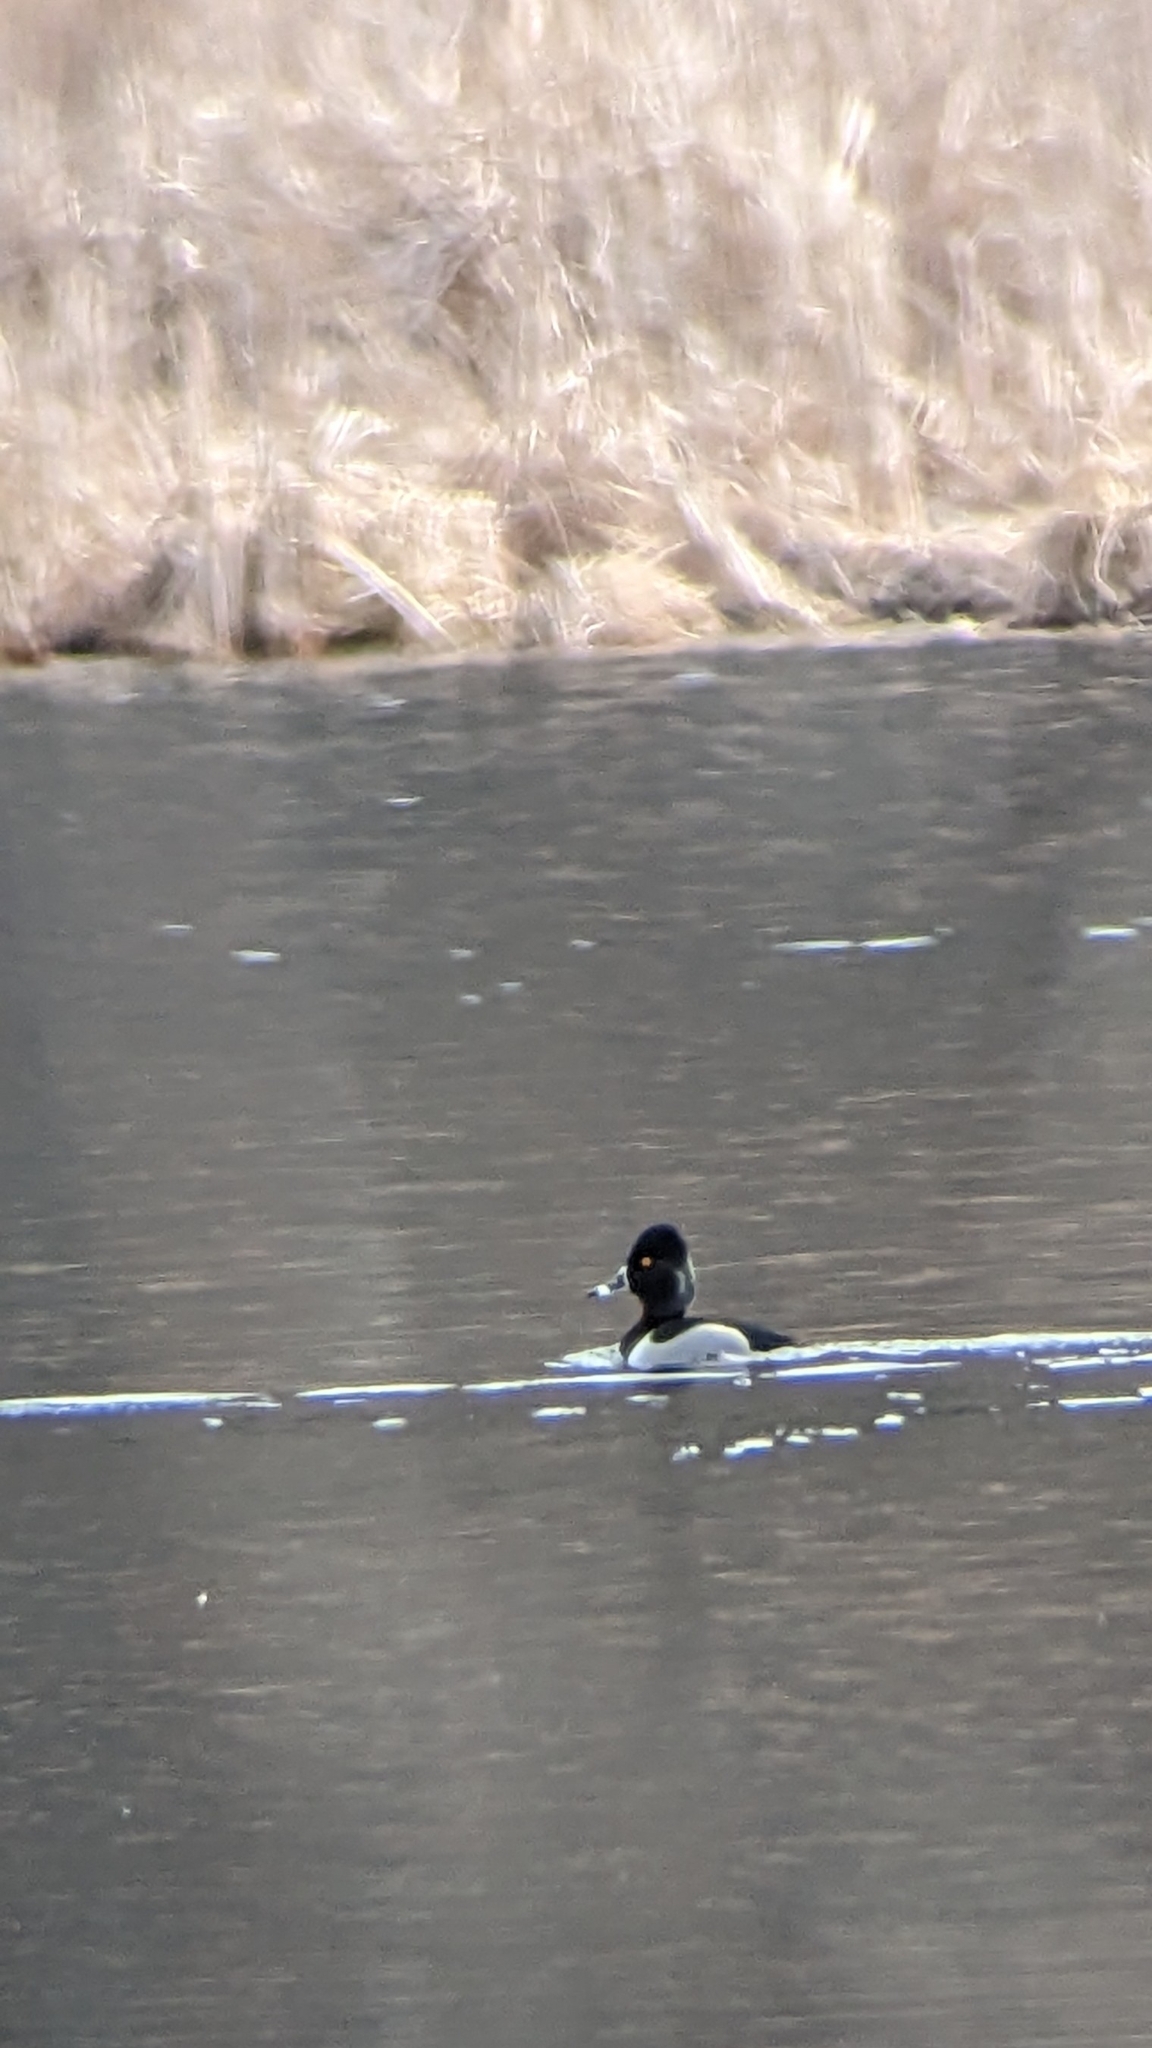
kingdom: Animalia
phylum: Chordata
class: Aves
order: Anseriformes
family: Anatidae
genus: Aythya
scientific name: Aythya collaris
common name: Ring-necked duck
